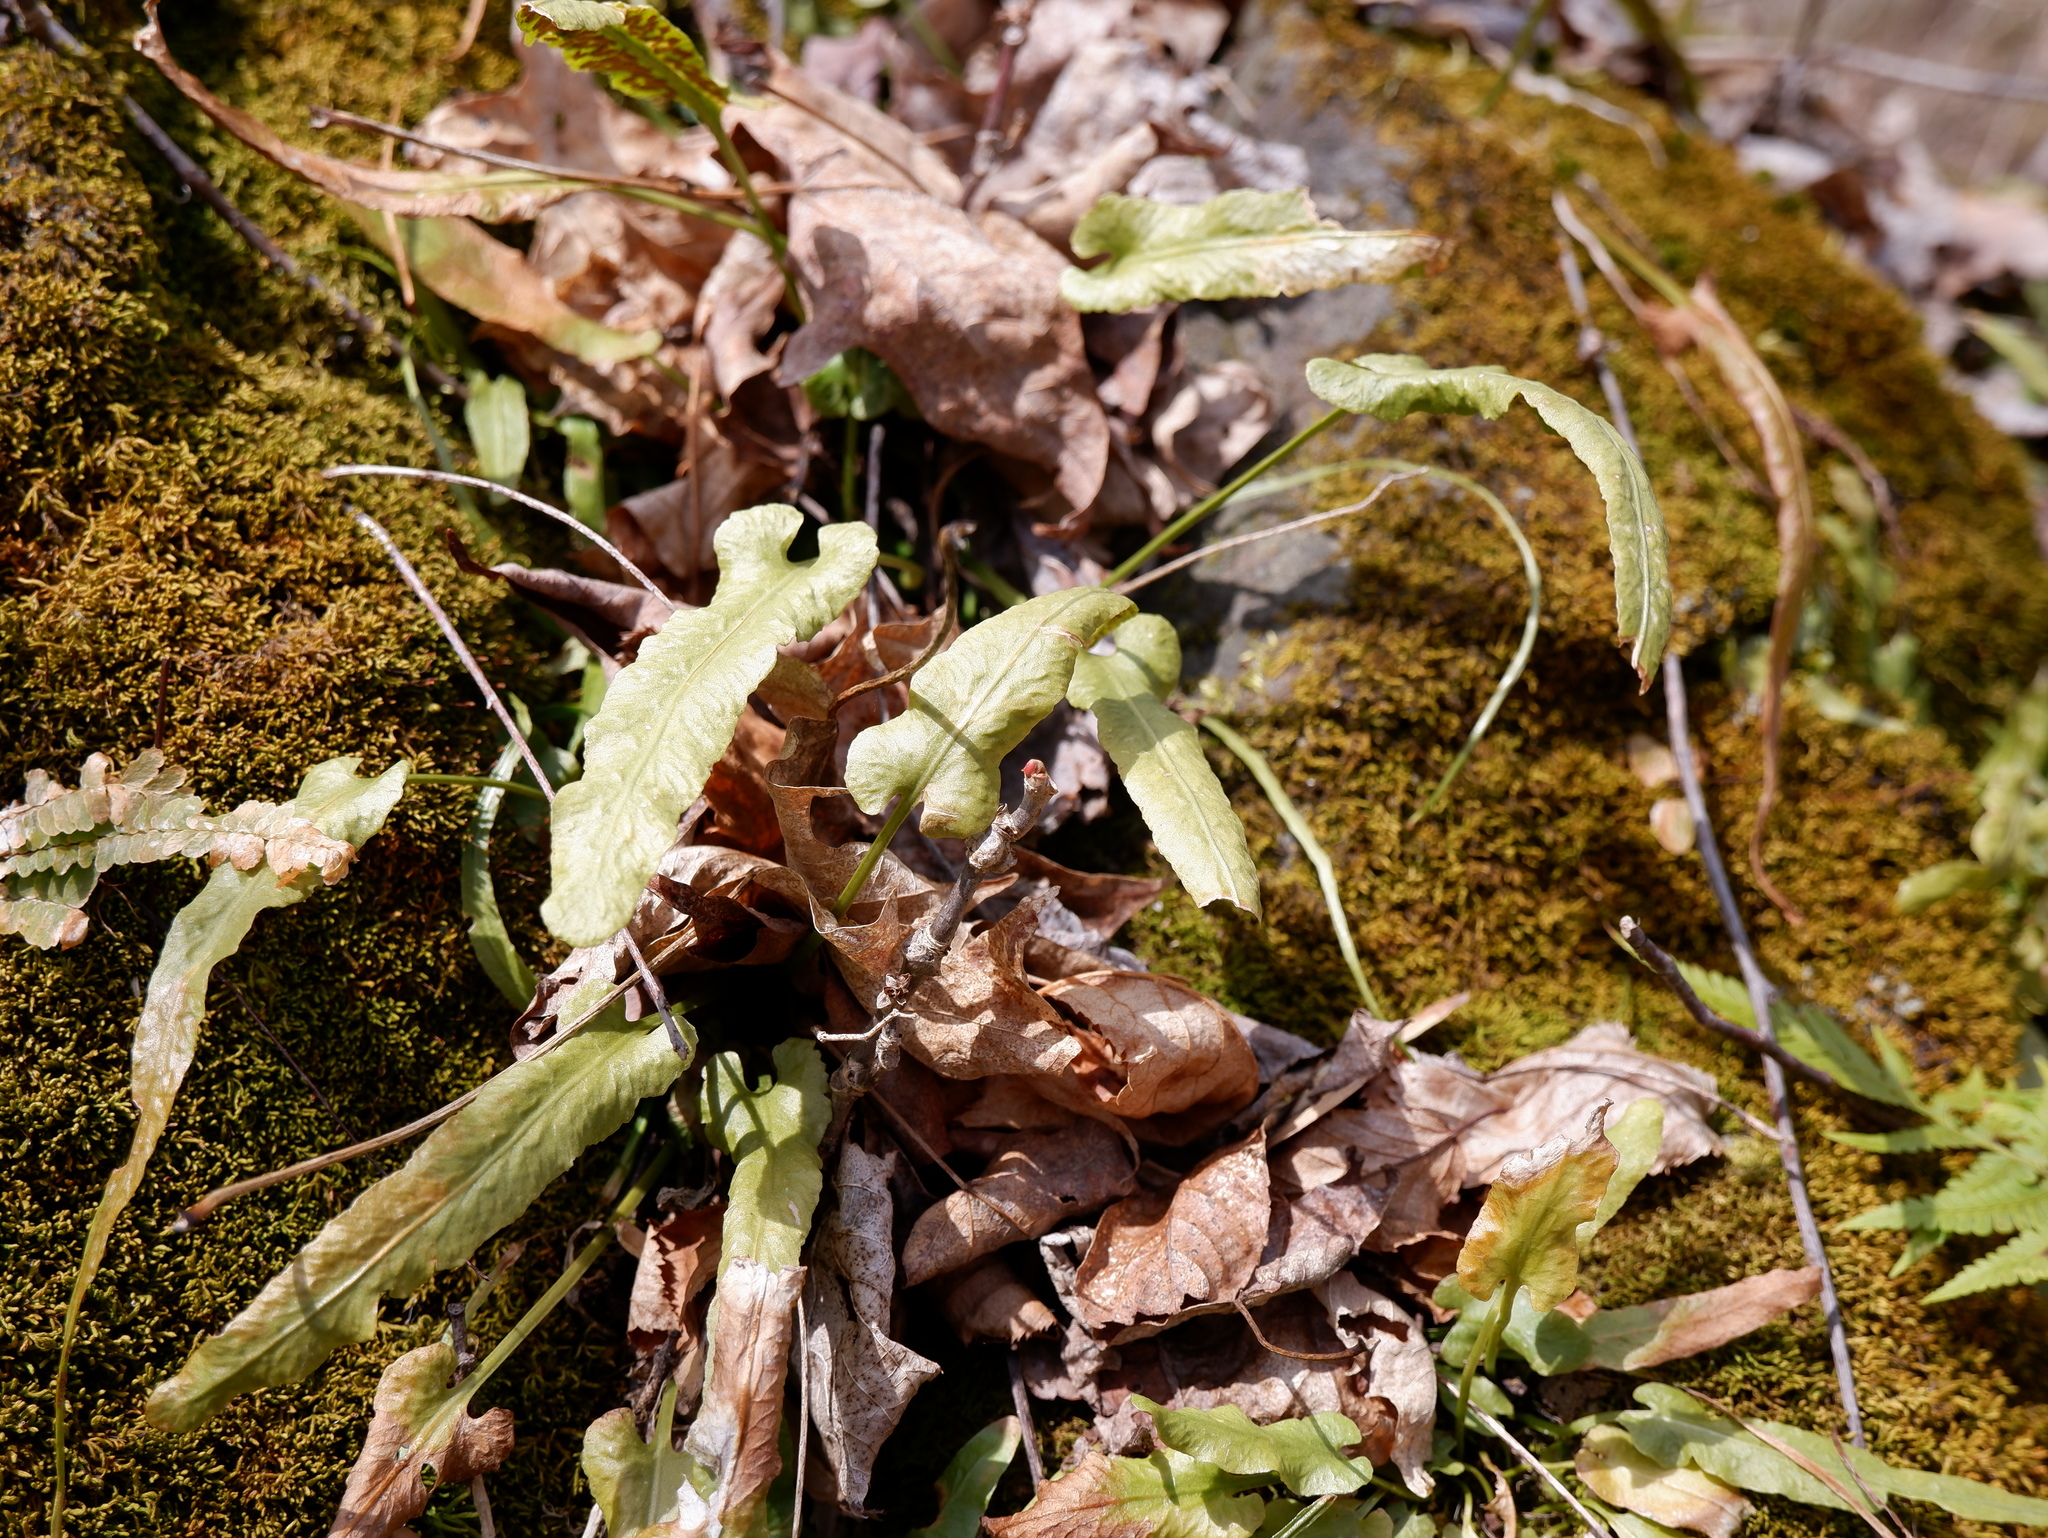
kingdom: Plantae
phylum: Tracheophyta
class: Polypodiopsida
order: Polypodiales
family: Aspleniaceae
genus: Asplenium
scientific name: Asplenium rhizophyllum
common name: Walking fern
